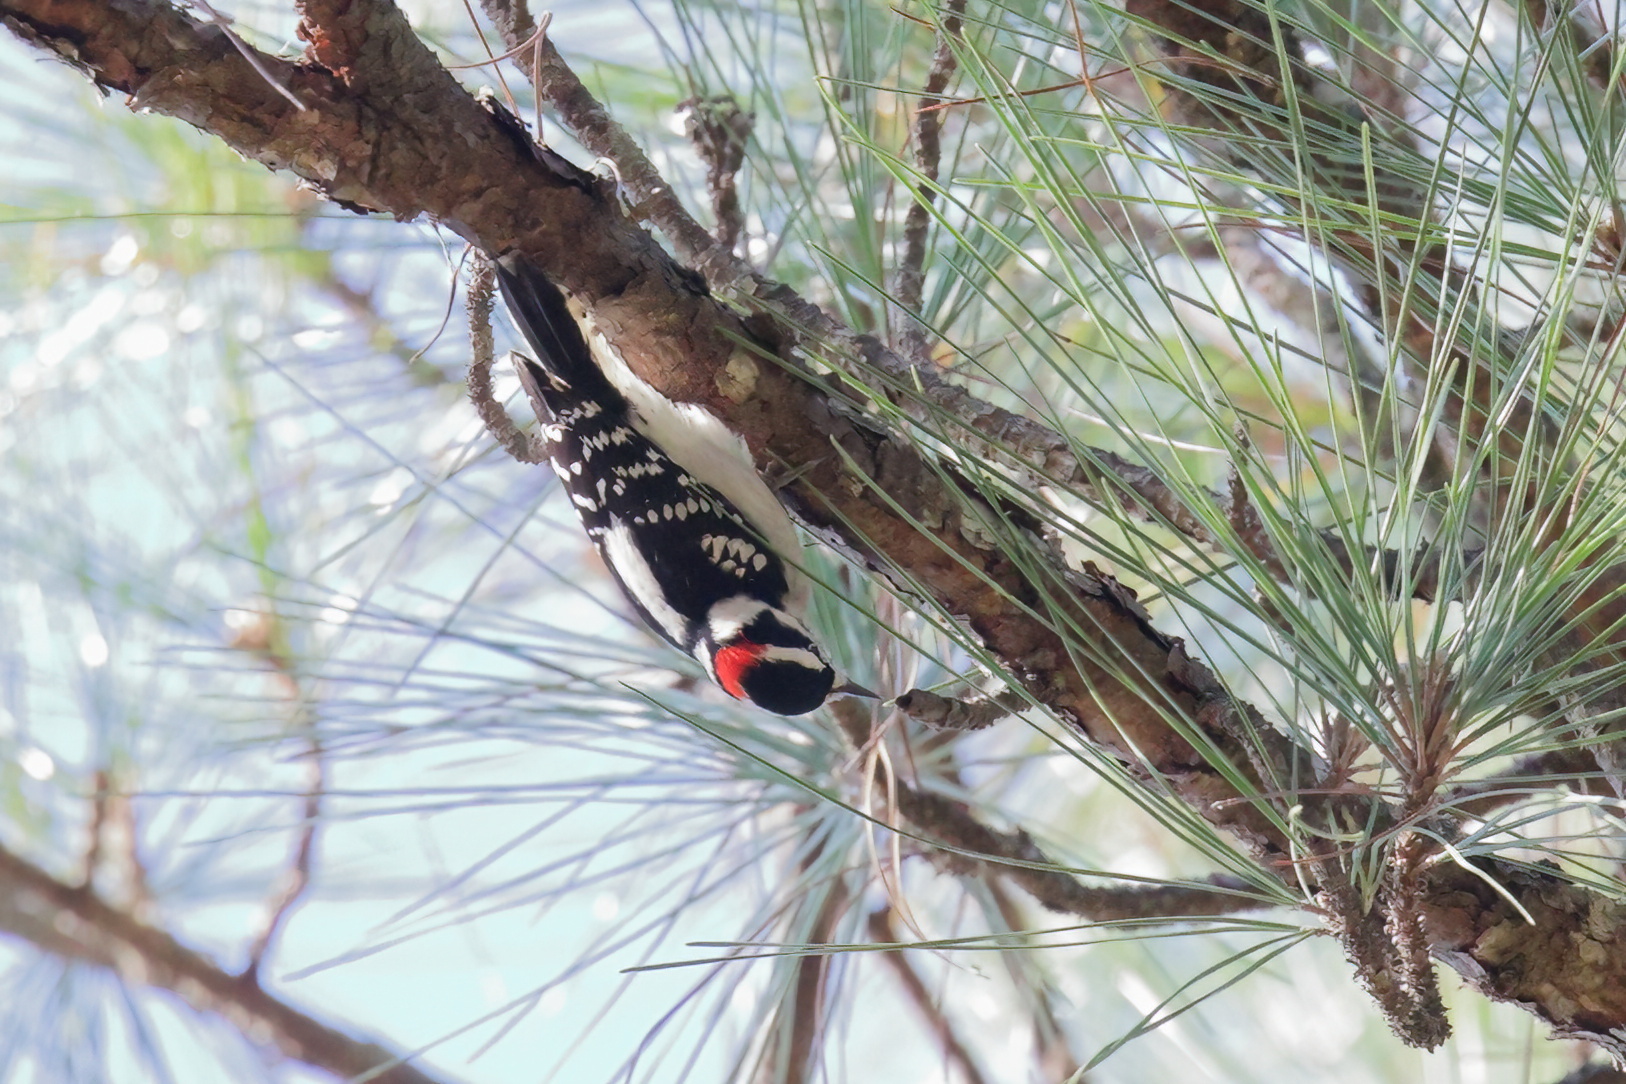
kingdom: Animalia
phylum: Chordata
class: Aves
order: Piciformes
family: Picidae
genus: Dryobates
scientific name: Dryobates pubescens
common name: Downy woodpecker
